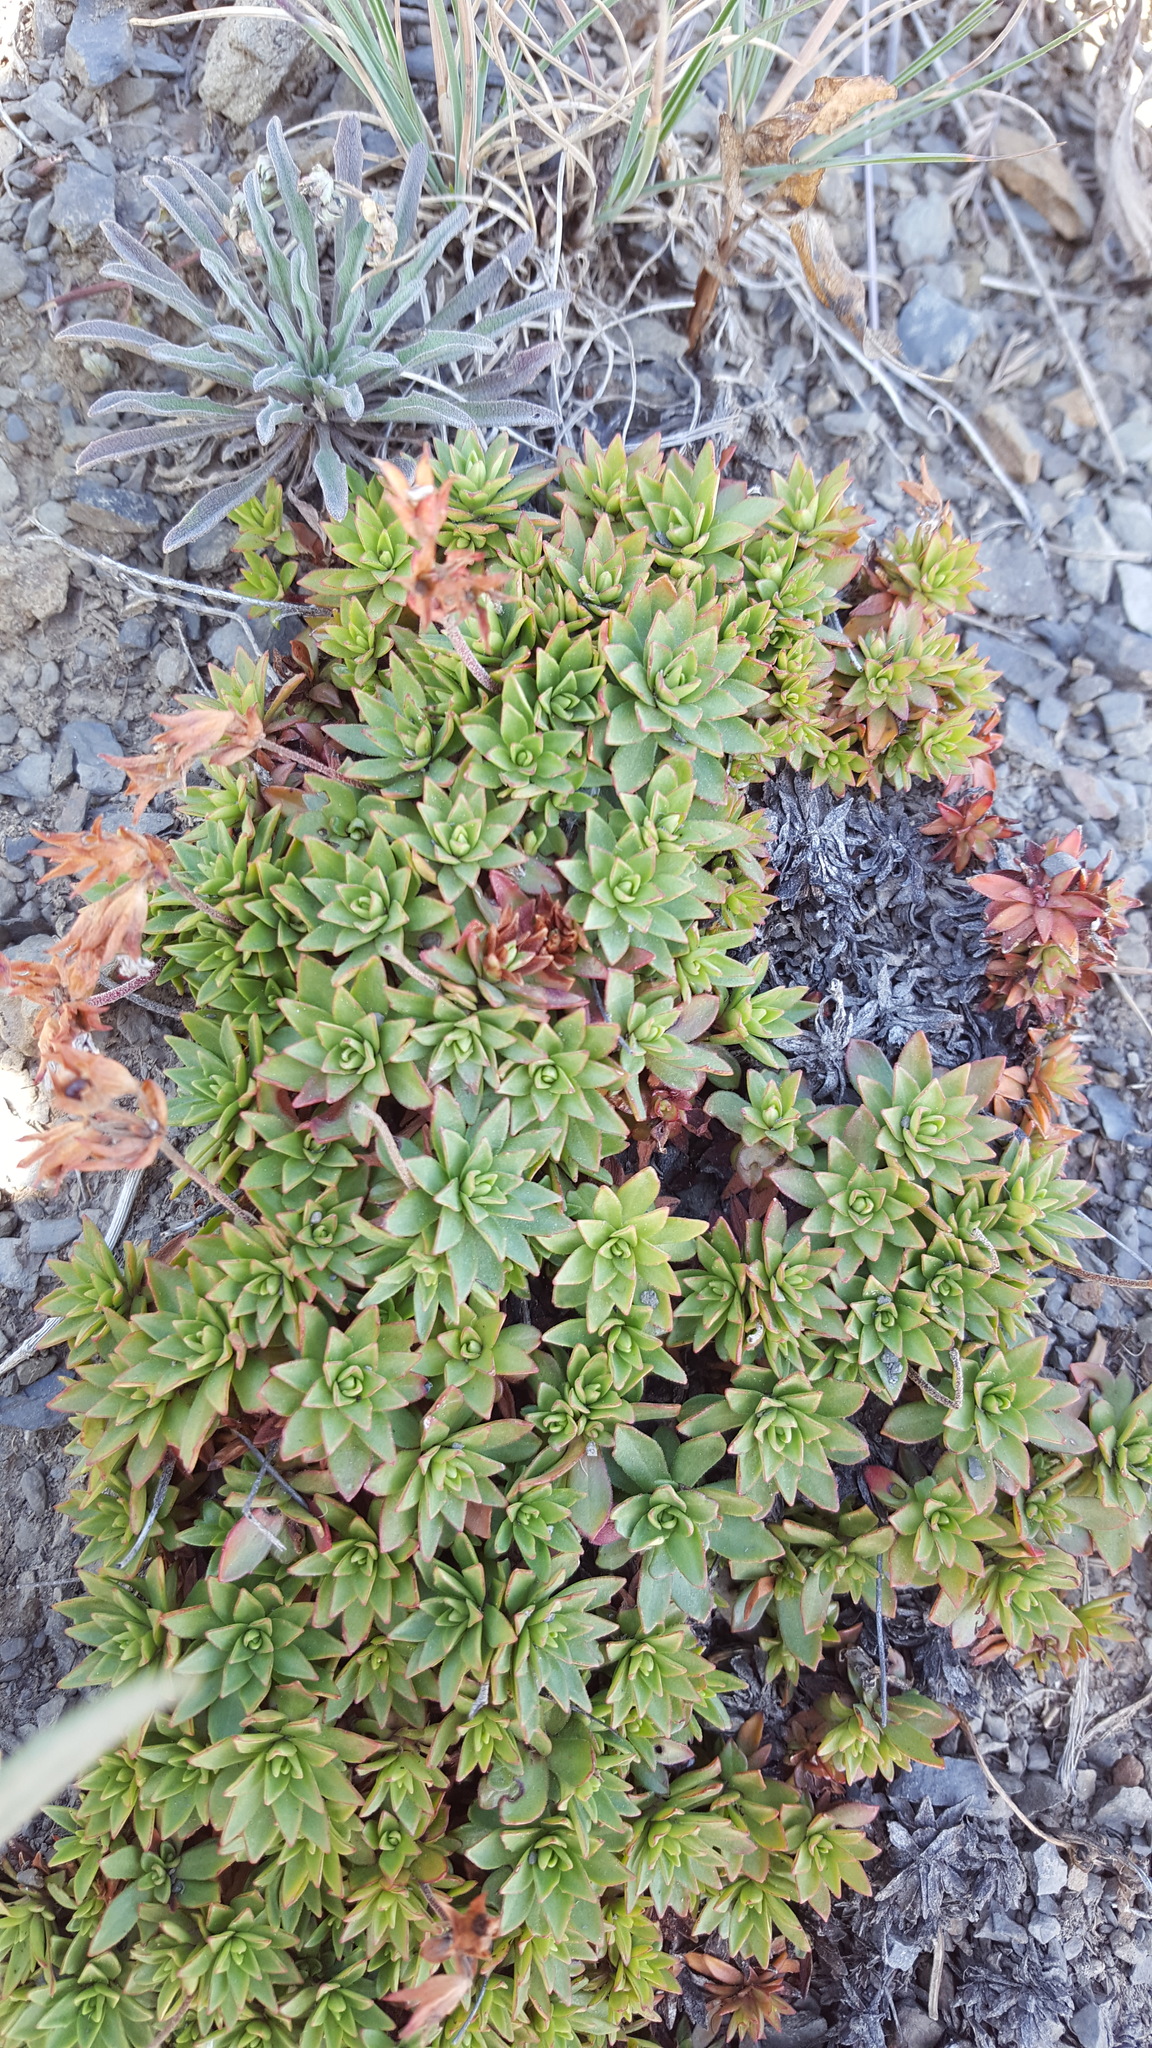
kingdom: Plantae
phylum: Tracheophyta
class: Magnoliopsida
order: Ericales
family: Primulaceae
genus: Androsace
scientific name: Androsace laevigata
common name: Cliff dwarf-primrose
